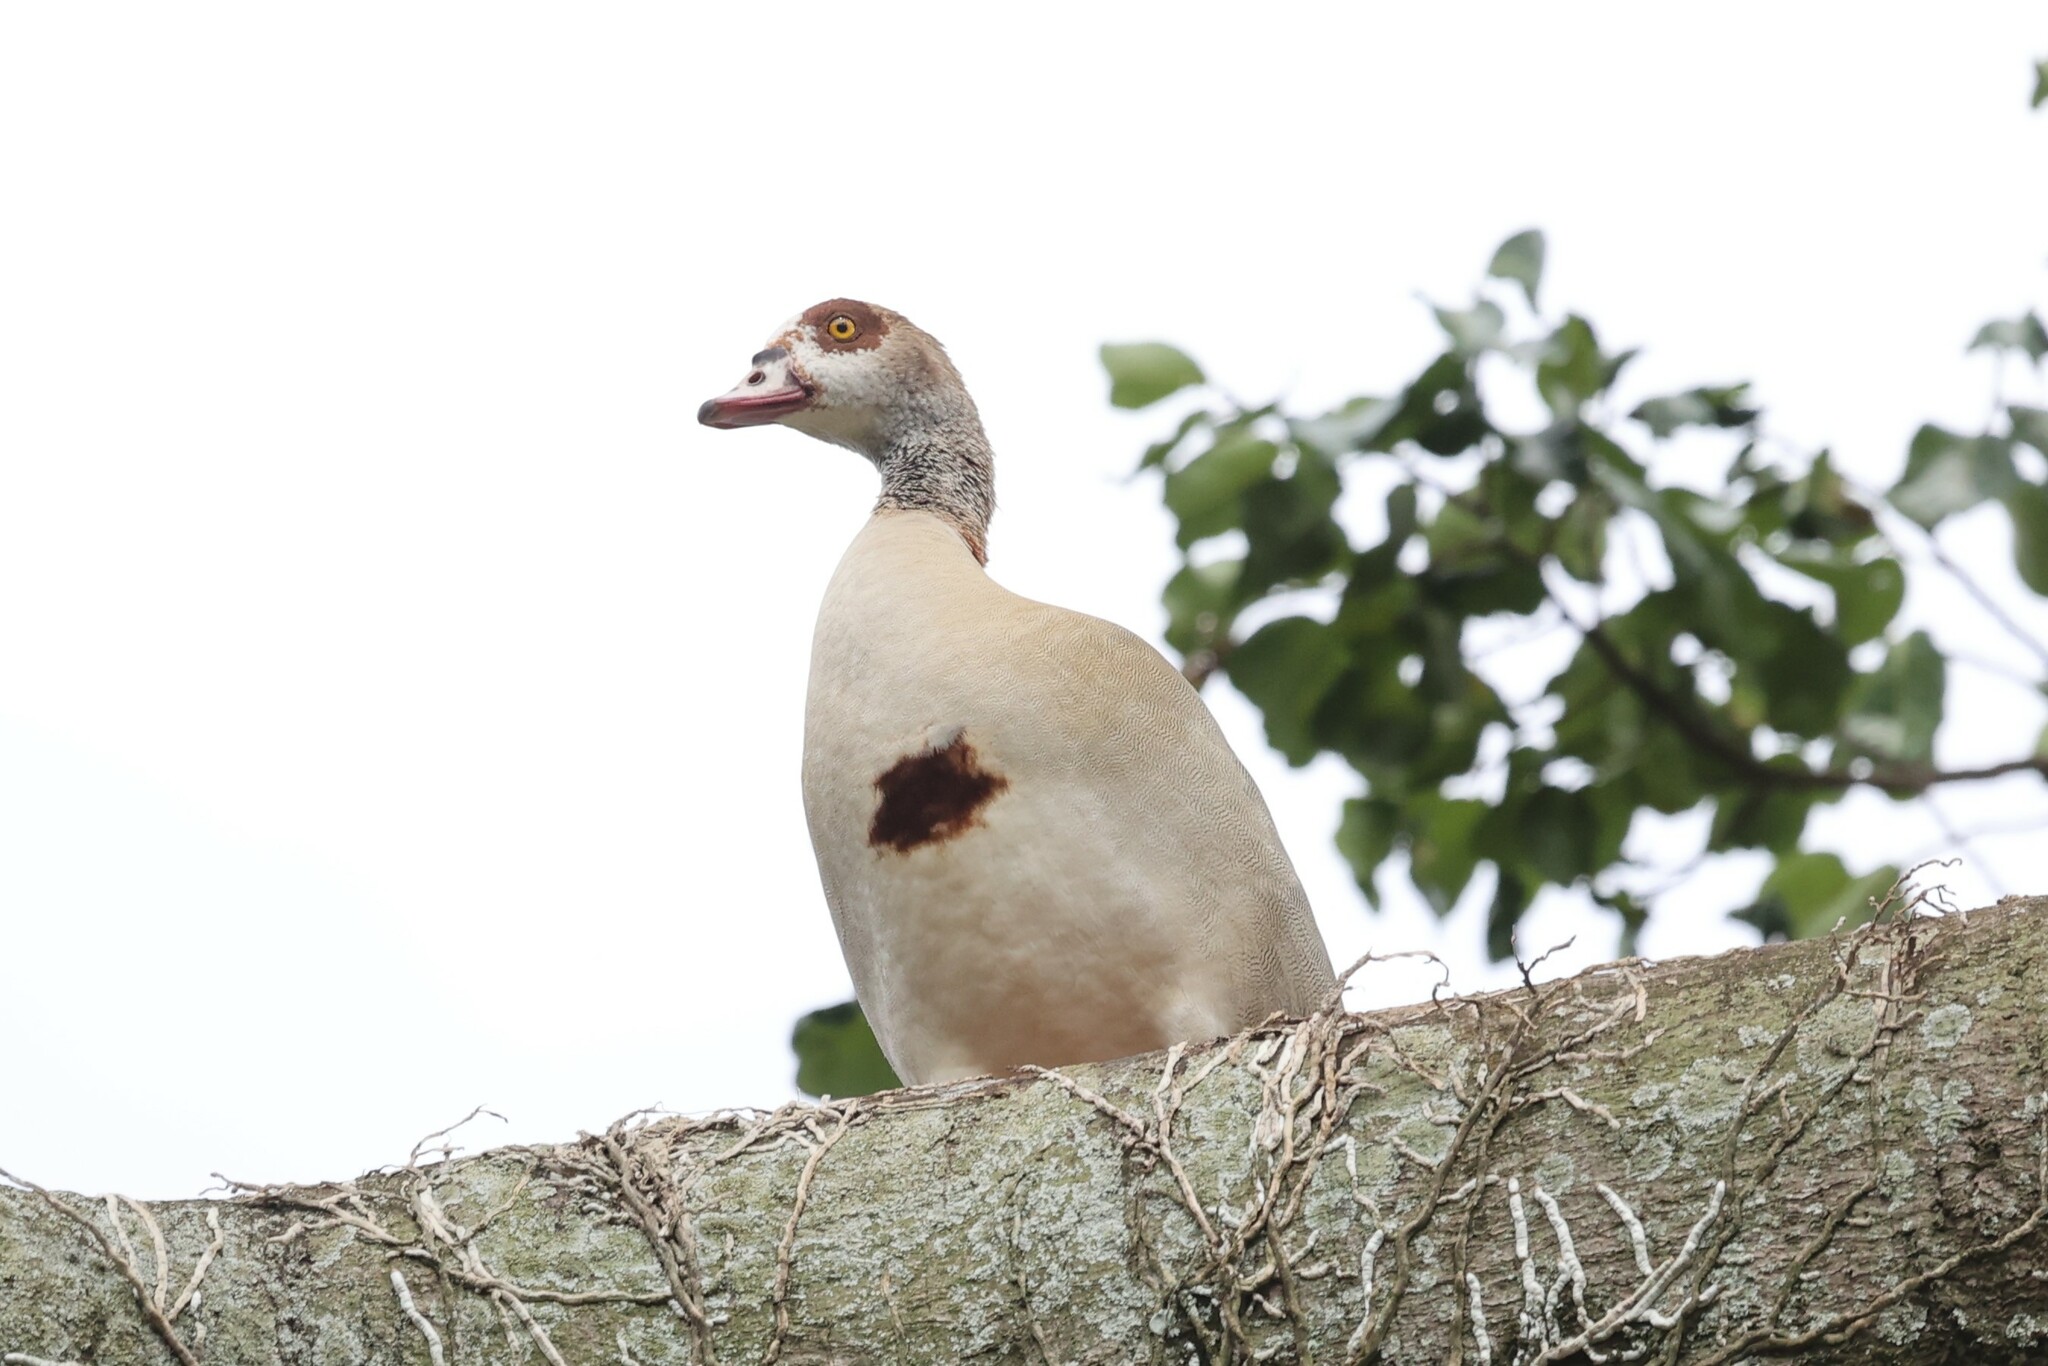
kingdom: Animalia
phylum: Chordata
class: Aves
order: Anseriformes
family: Anatidae
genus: Alopochen
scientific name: Alopochen aegyptiaca
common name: Egyptian goose
